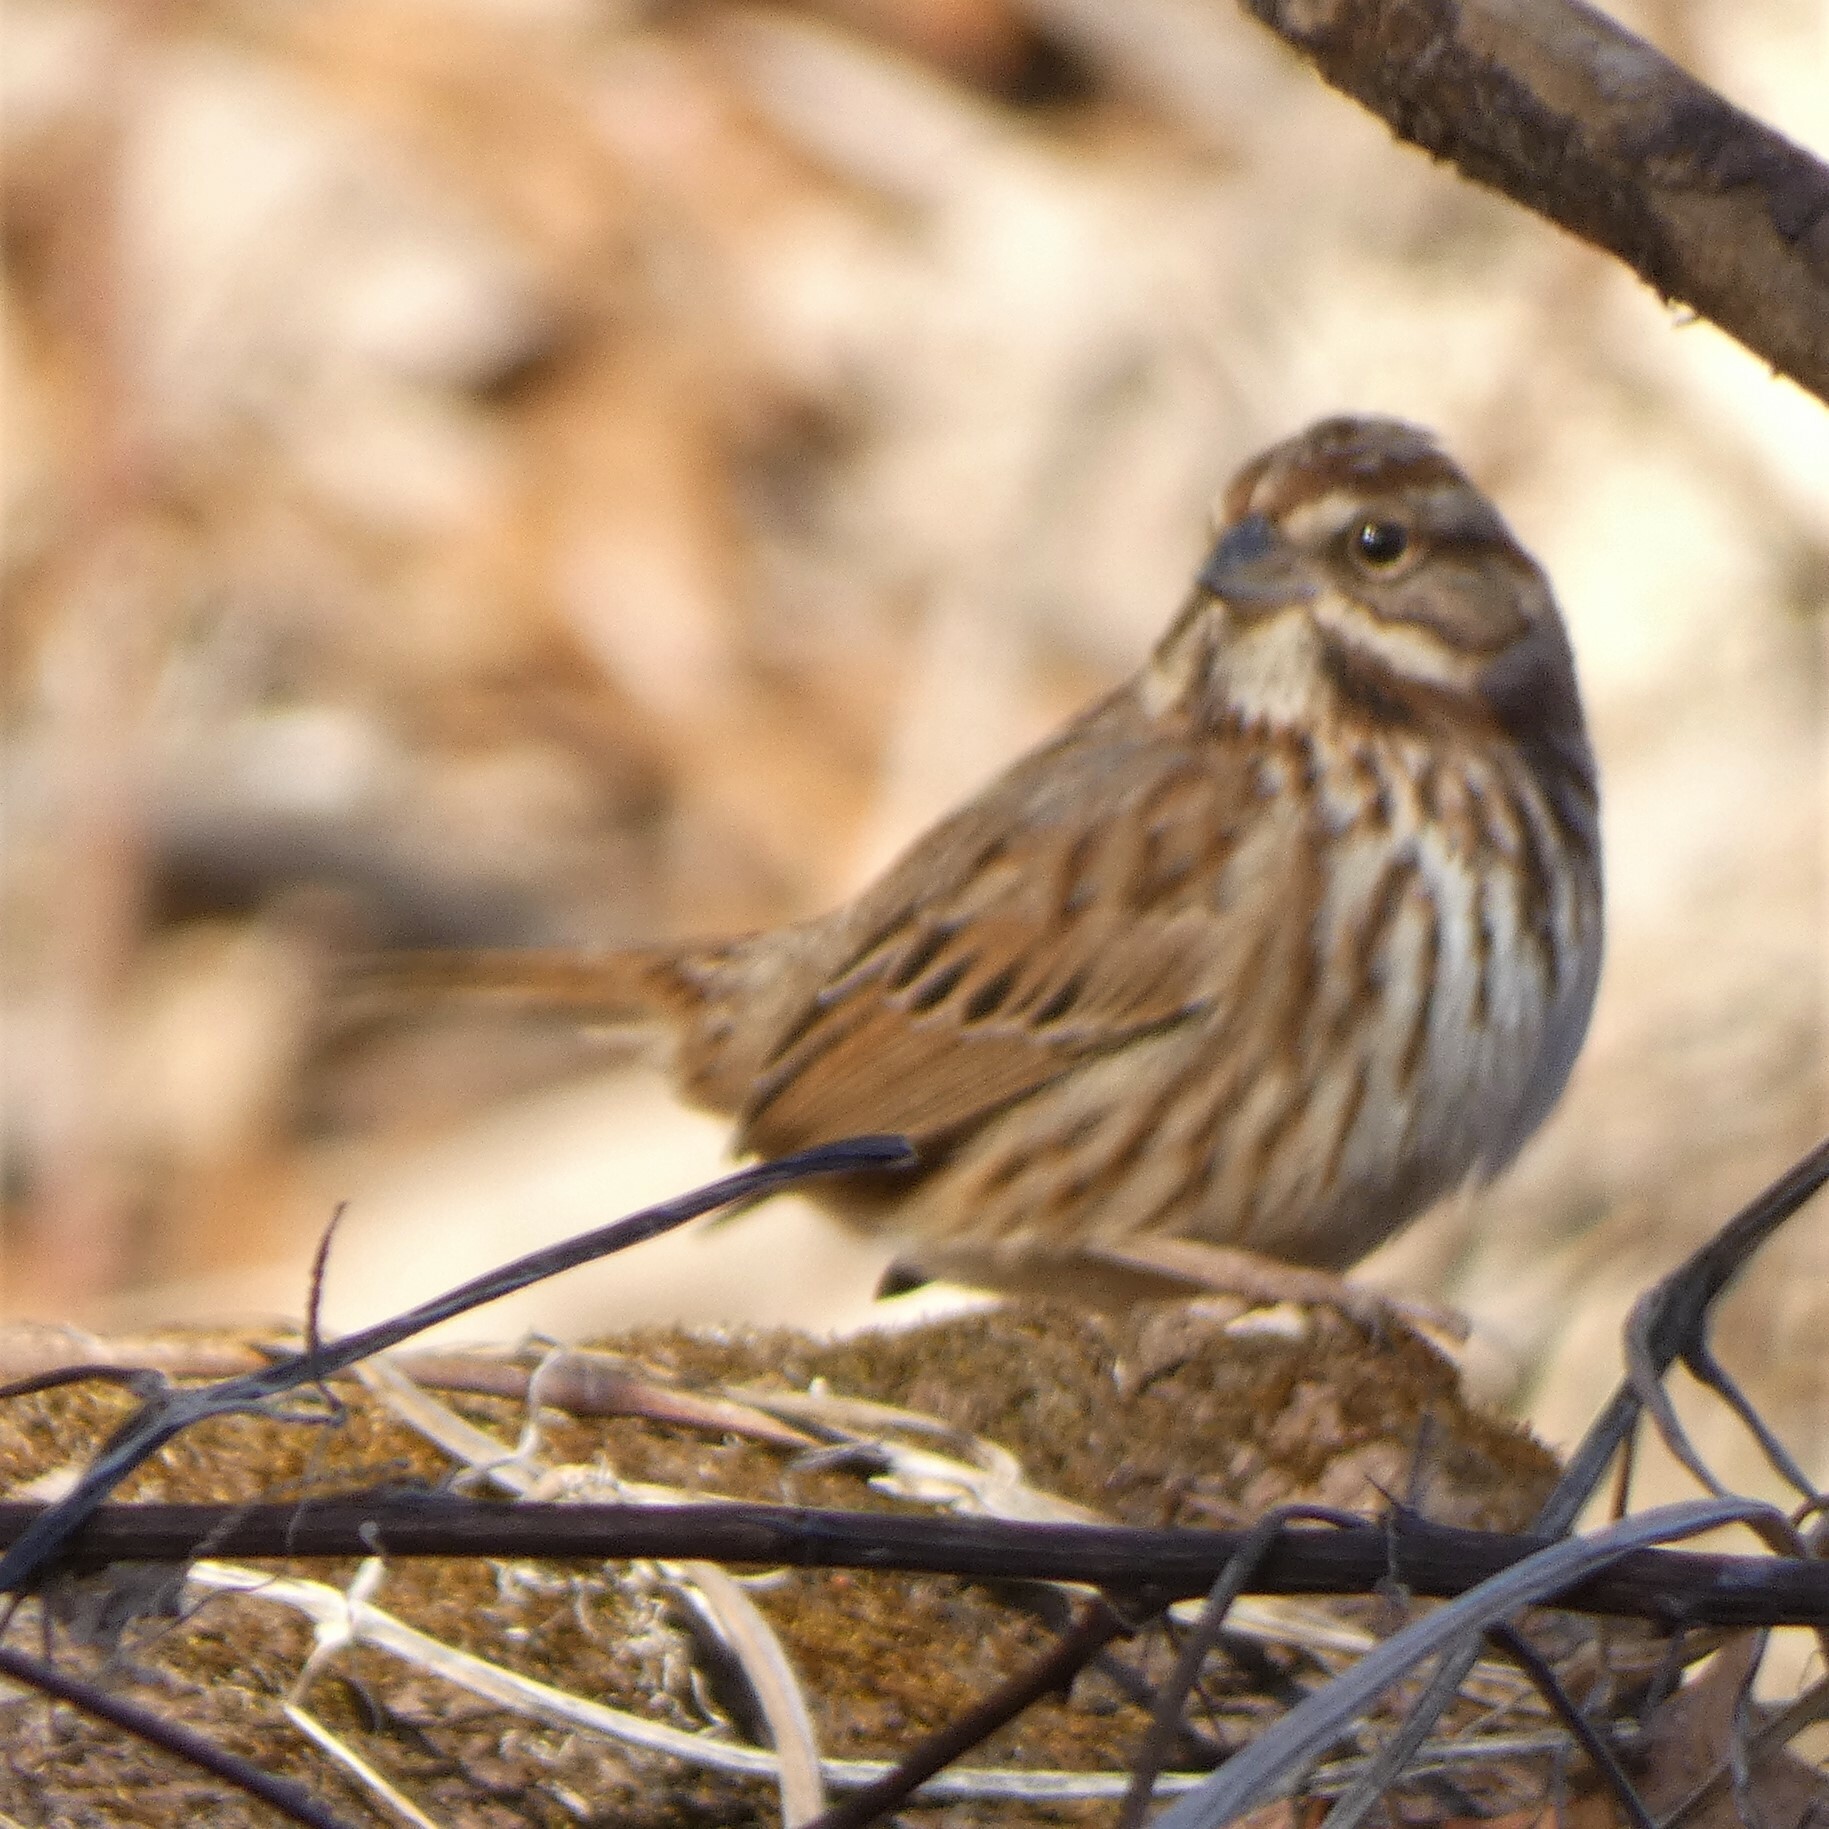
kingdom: Animalia
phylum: Chordata
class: Aves
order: Passeriformes
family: Passerellidae
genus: Melospiza
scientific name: Melospiza melodia
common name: Song sparrow
